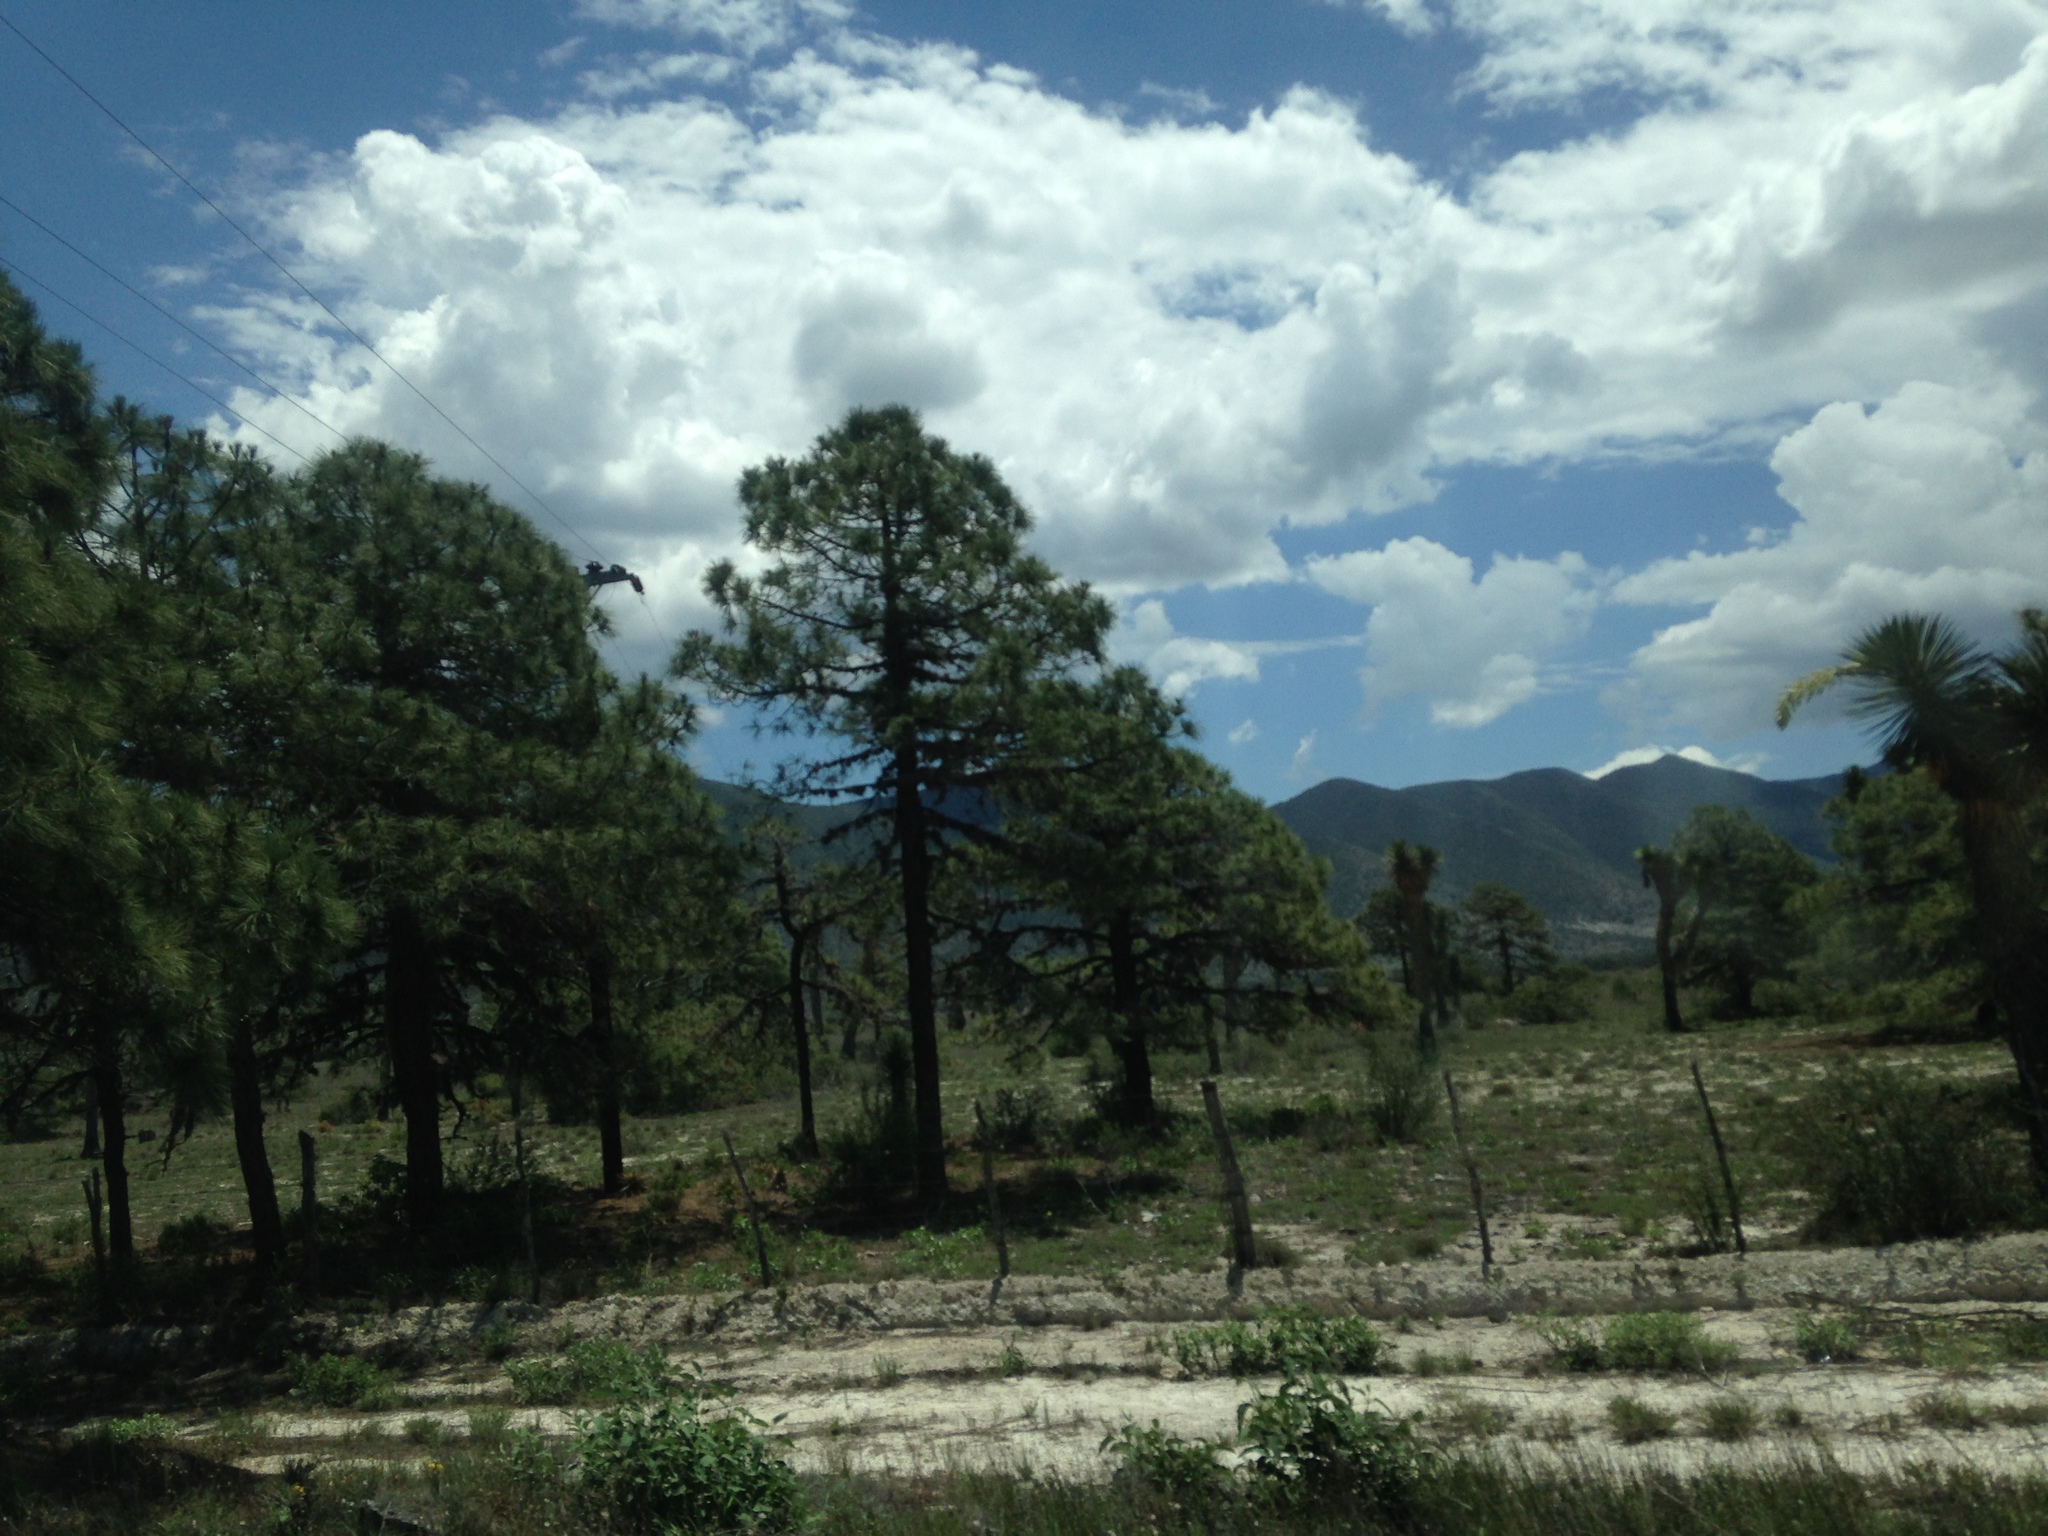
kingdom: Plantae
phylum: Tracheophyta
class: Pinopsida
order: Pinales
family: Pinaceae
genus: Pinus
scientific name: Pinus arizonica
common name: Arizona pine
